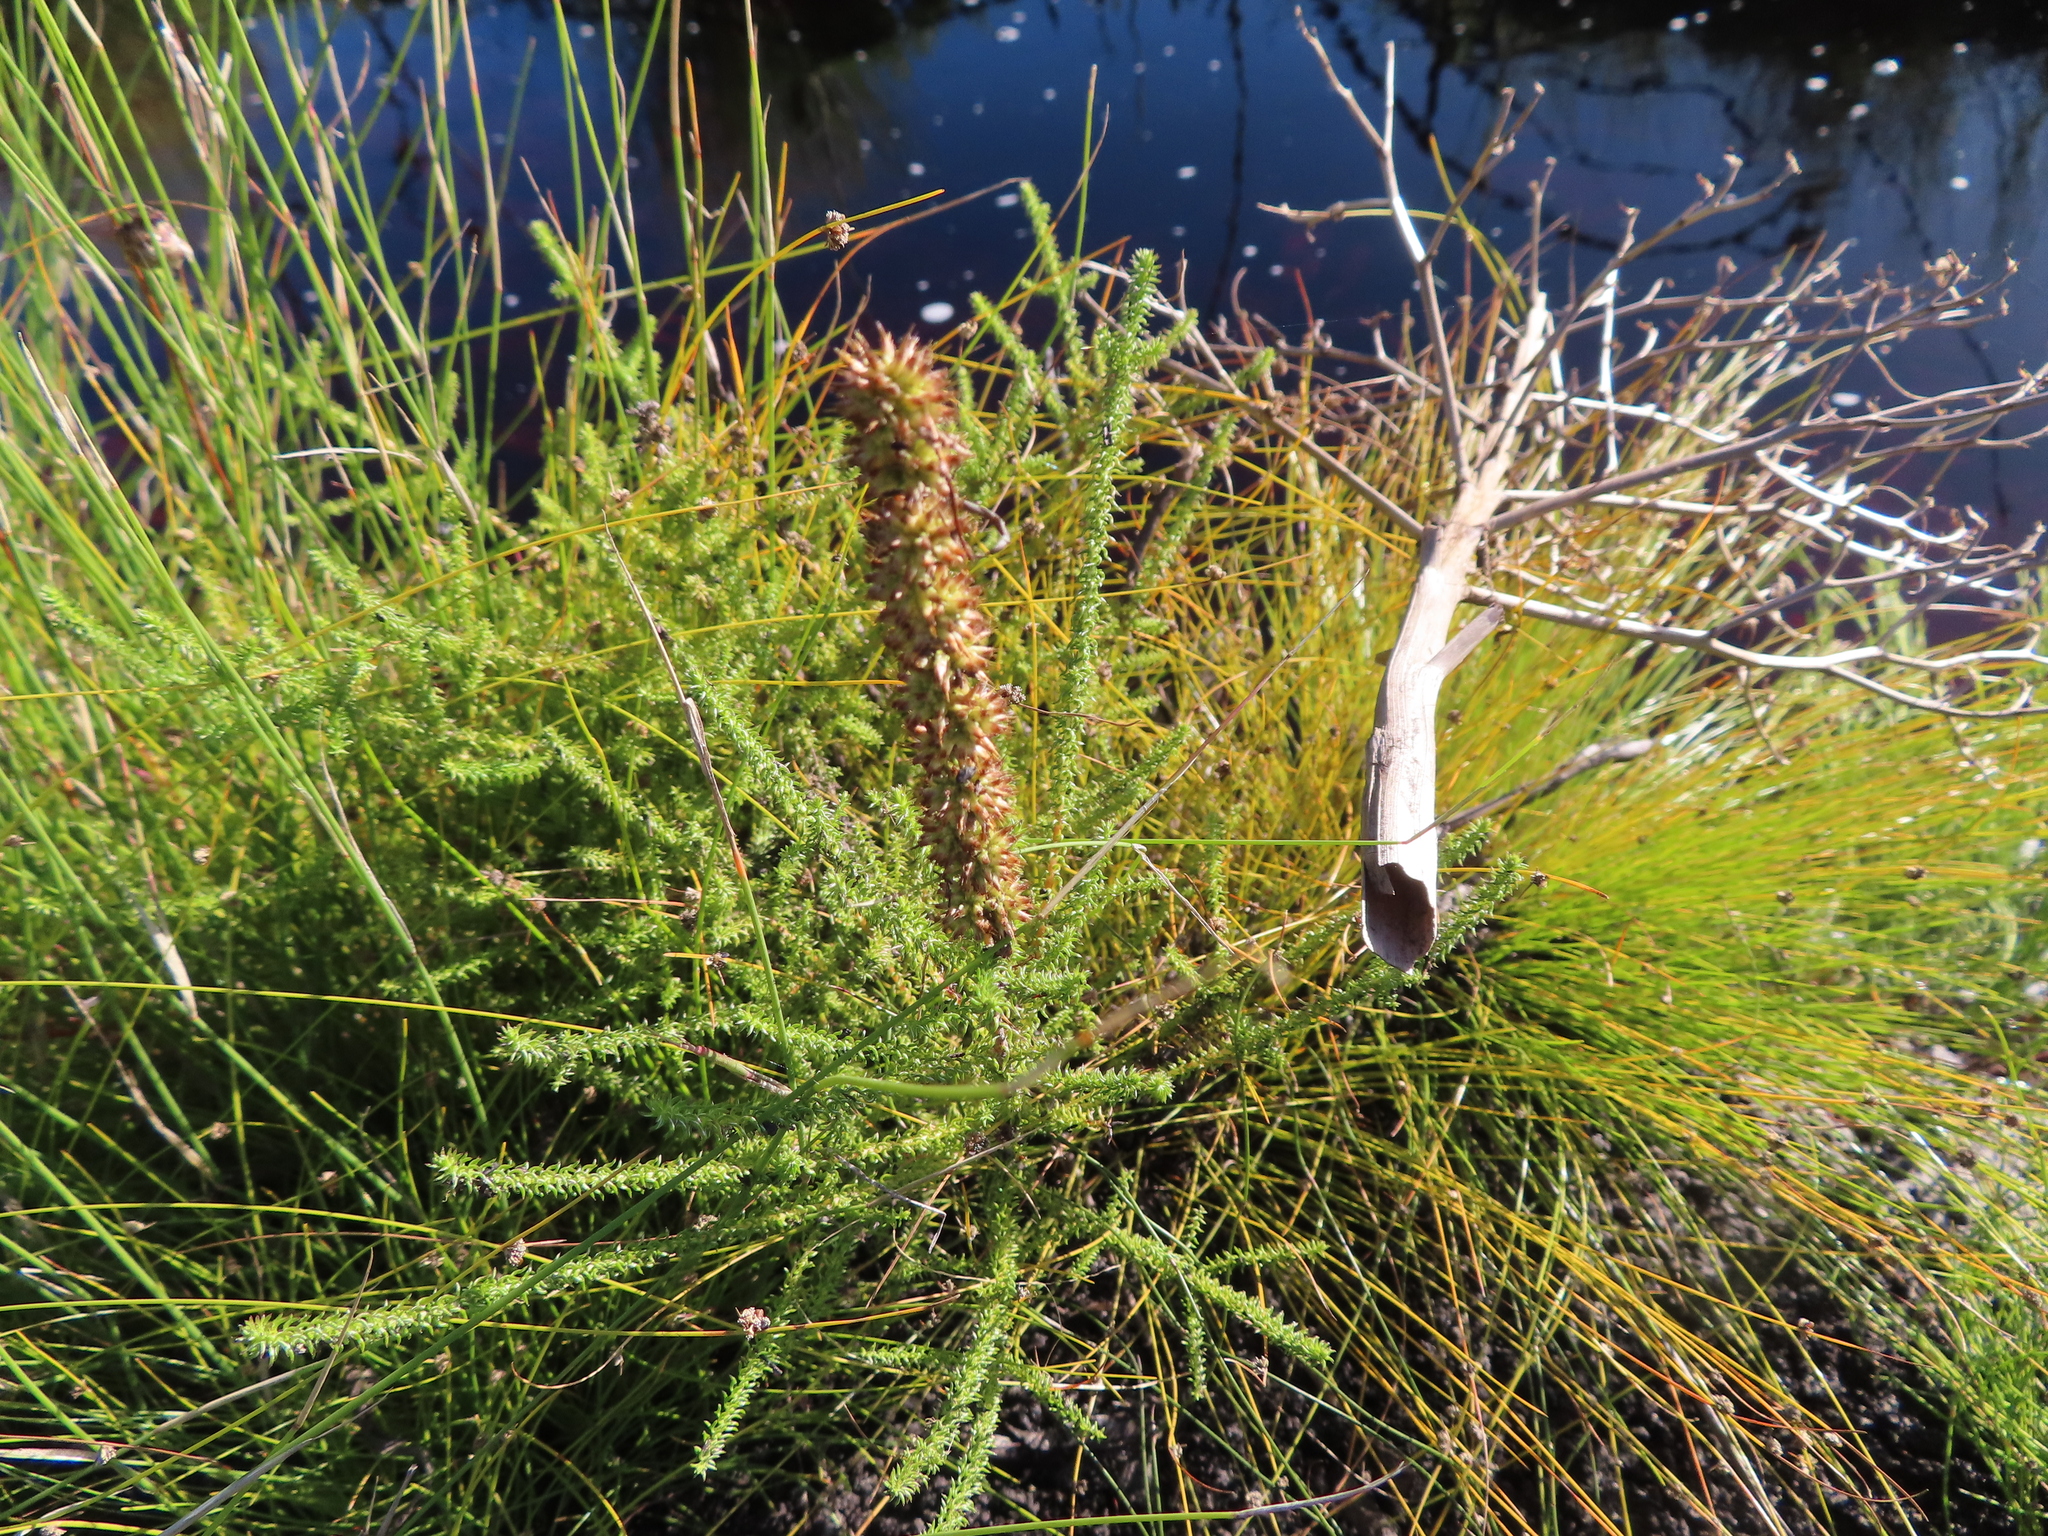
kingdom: Plantae
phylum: Tracheophyta
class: Magnoliopsida
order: Asterales
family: Asteraceae
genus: Seriphium
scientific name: Seriphium cinereum
